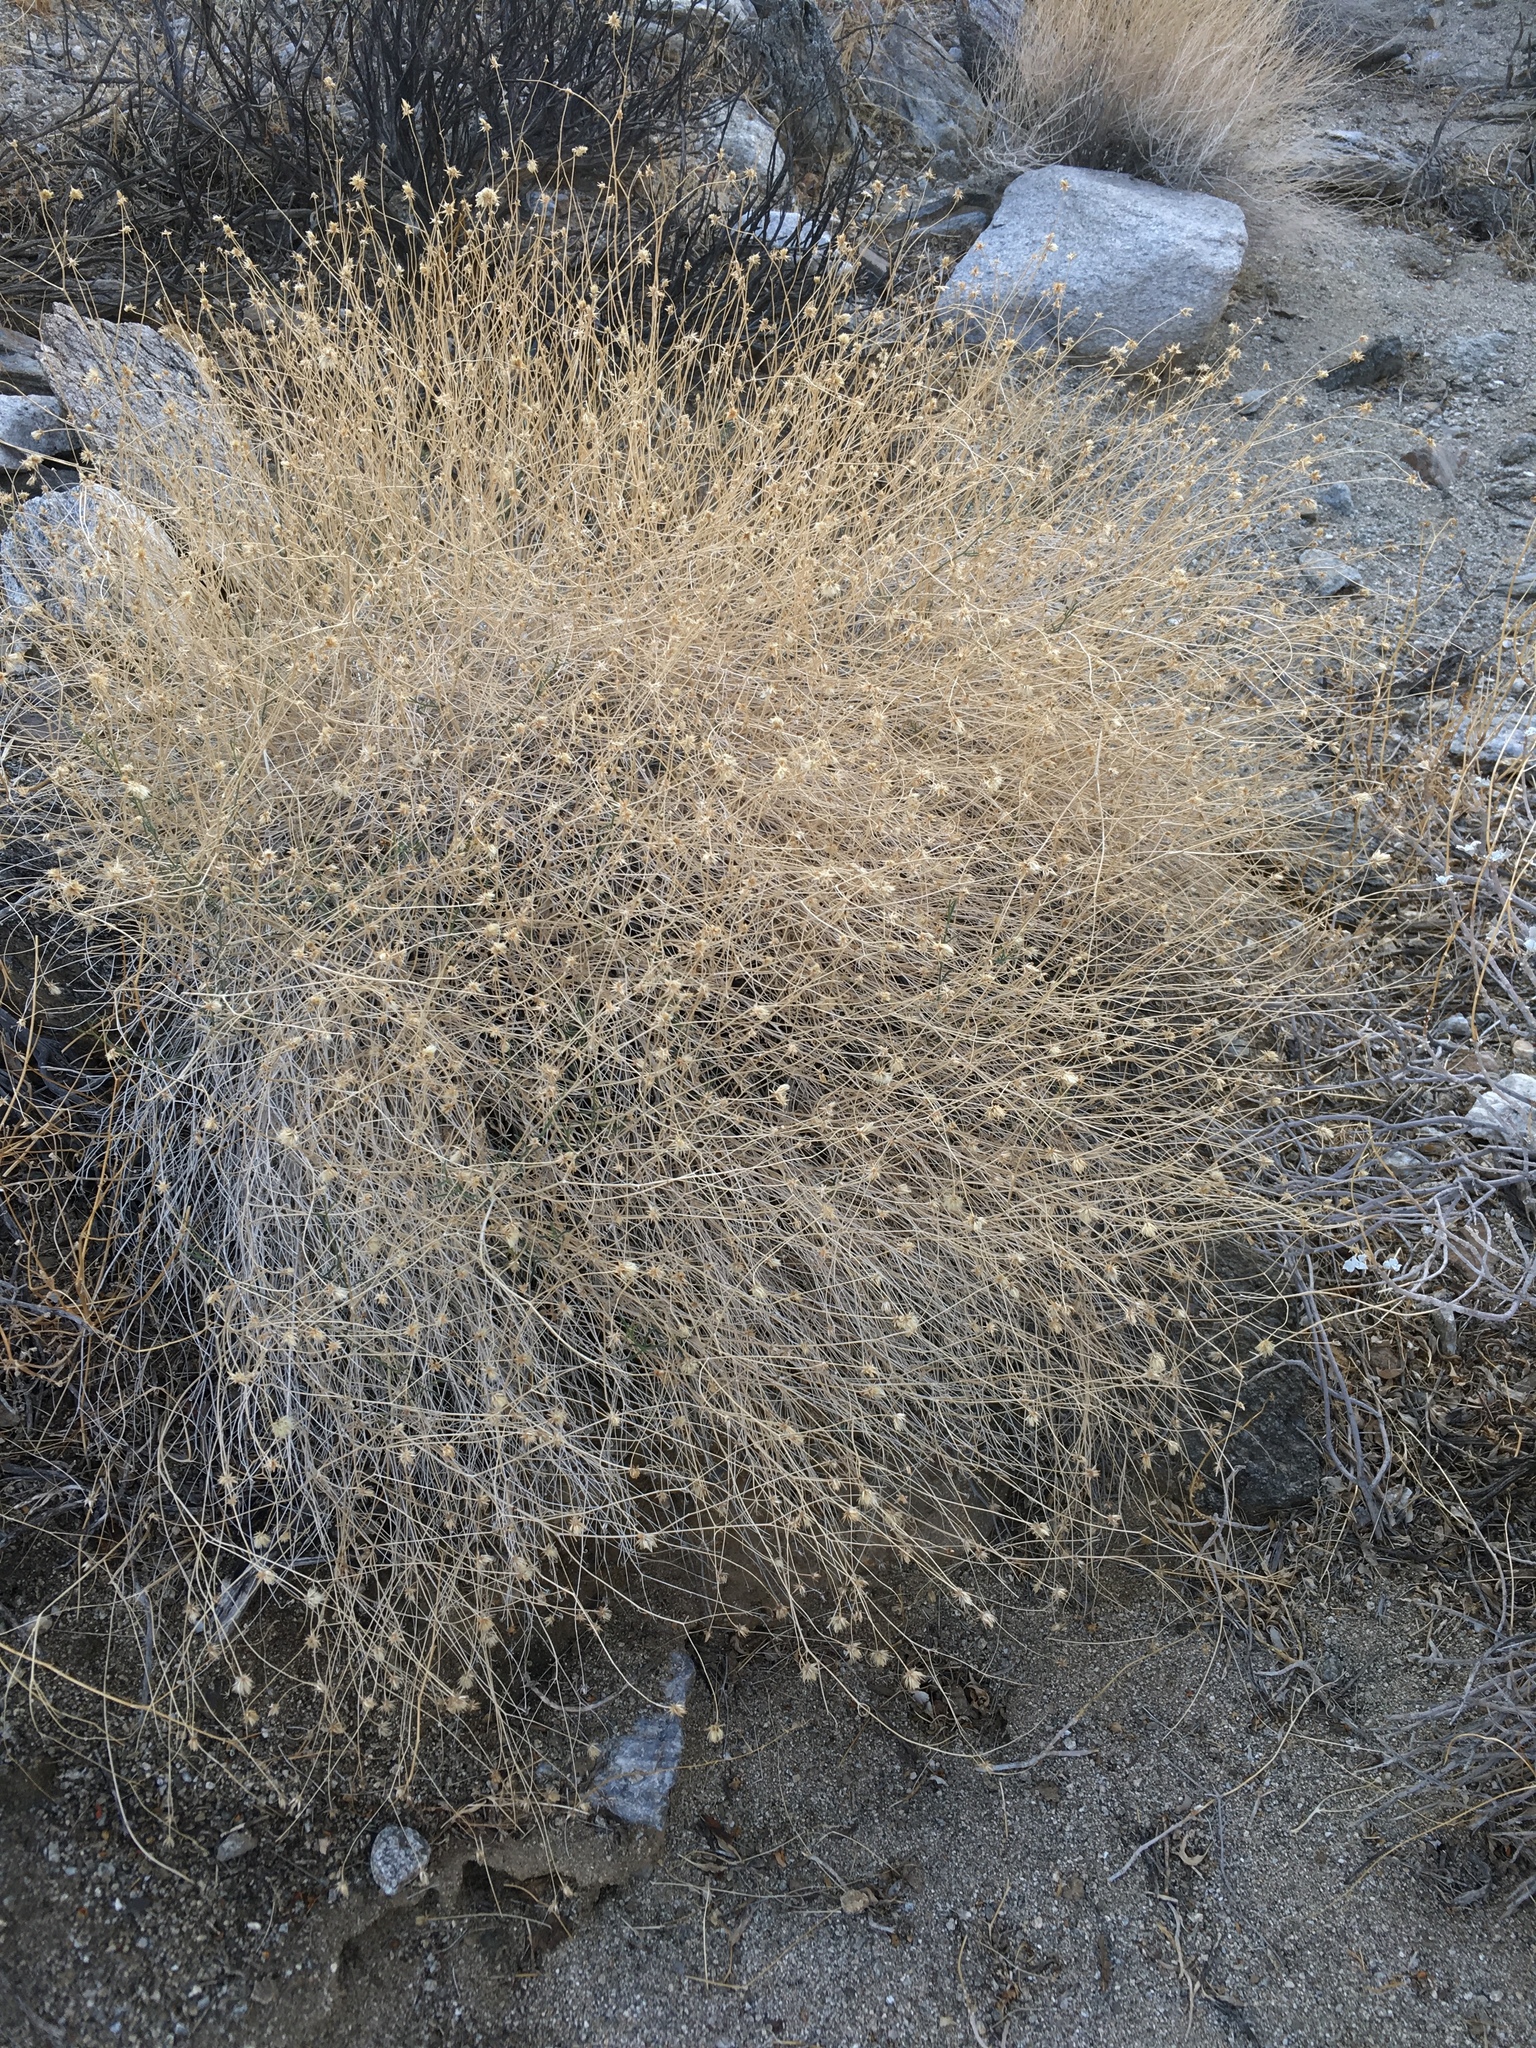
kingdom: Plantae
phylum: Tracheophyta
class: Magnoliopsida
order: Asterales
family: Asteraceae
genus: Bebbia
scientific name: Bebbia juncea
